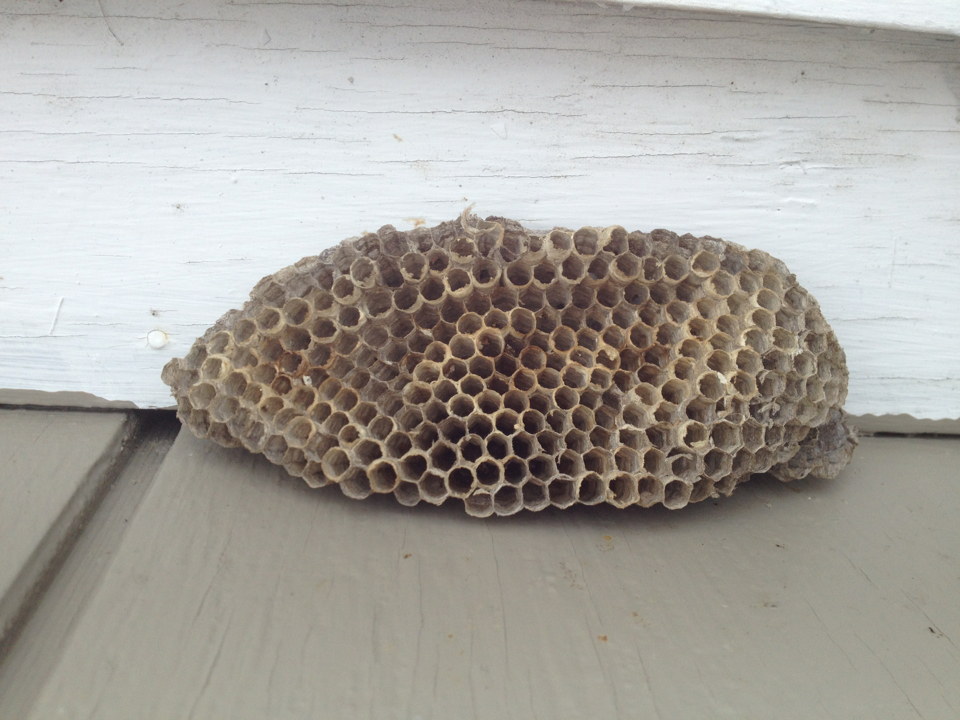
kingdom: Animalia
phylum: Arthropoda
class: Insecta
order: Hymenoptera
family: Eumenidae
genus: Polistes
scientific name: Polistes
